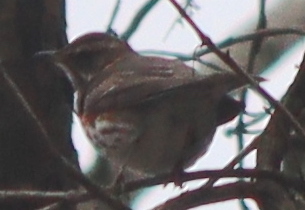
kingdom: Animalia
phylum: Chordata
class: Aves
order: Passeriformes
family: Turdidae
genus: Turdus
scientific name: Turdus iliacus
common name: Redwing
